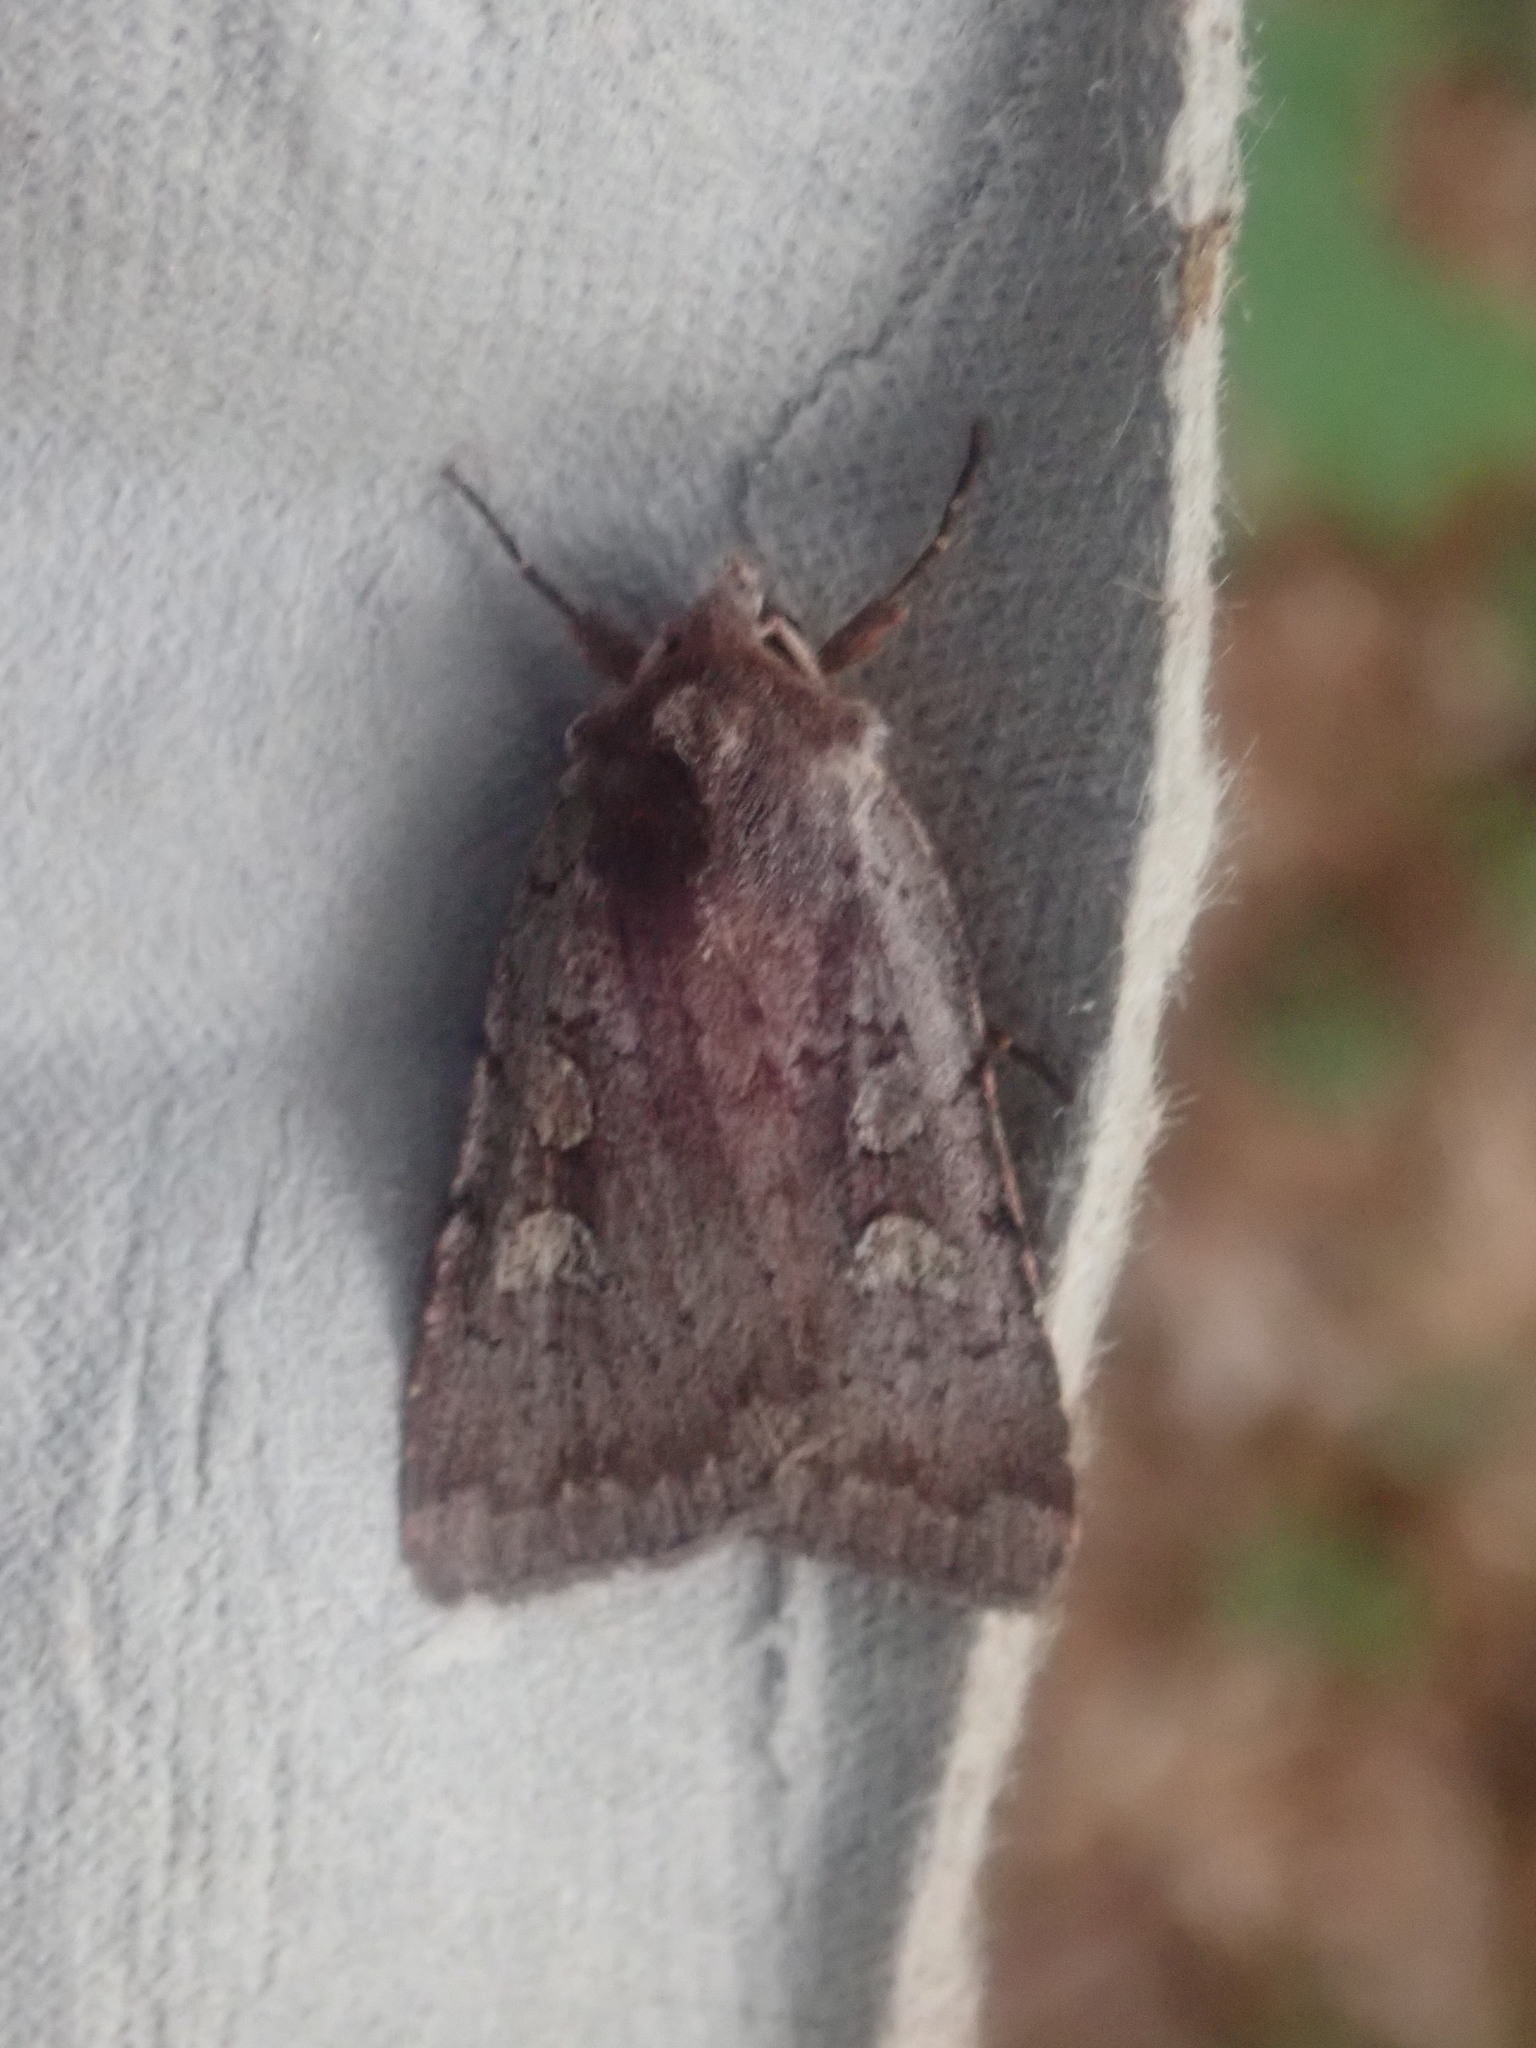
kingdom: Animalia
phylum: Arthropoda
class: Insecta
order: Lepidoptera
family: Noctuidae
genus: Xestia
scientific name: Xestia dilucida
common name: Dull reddish dart
